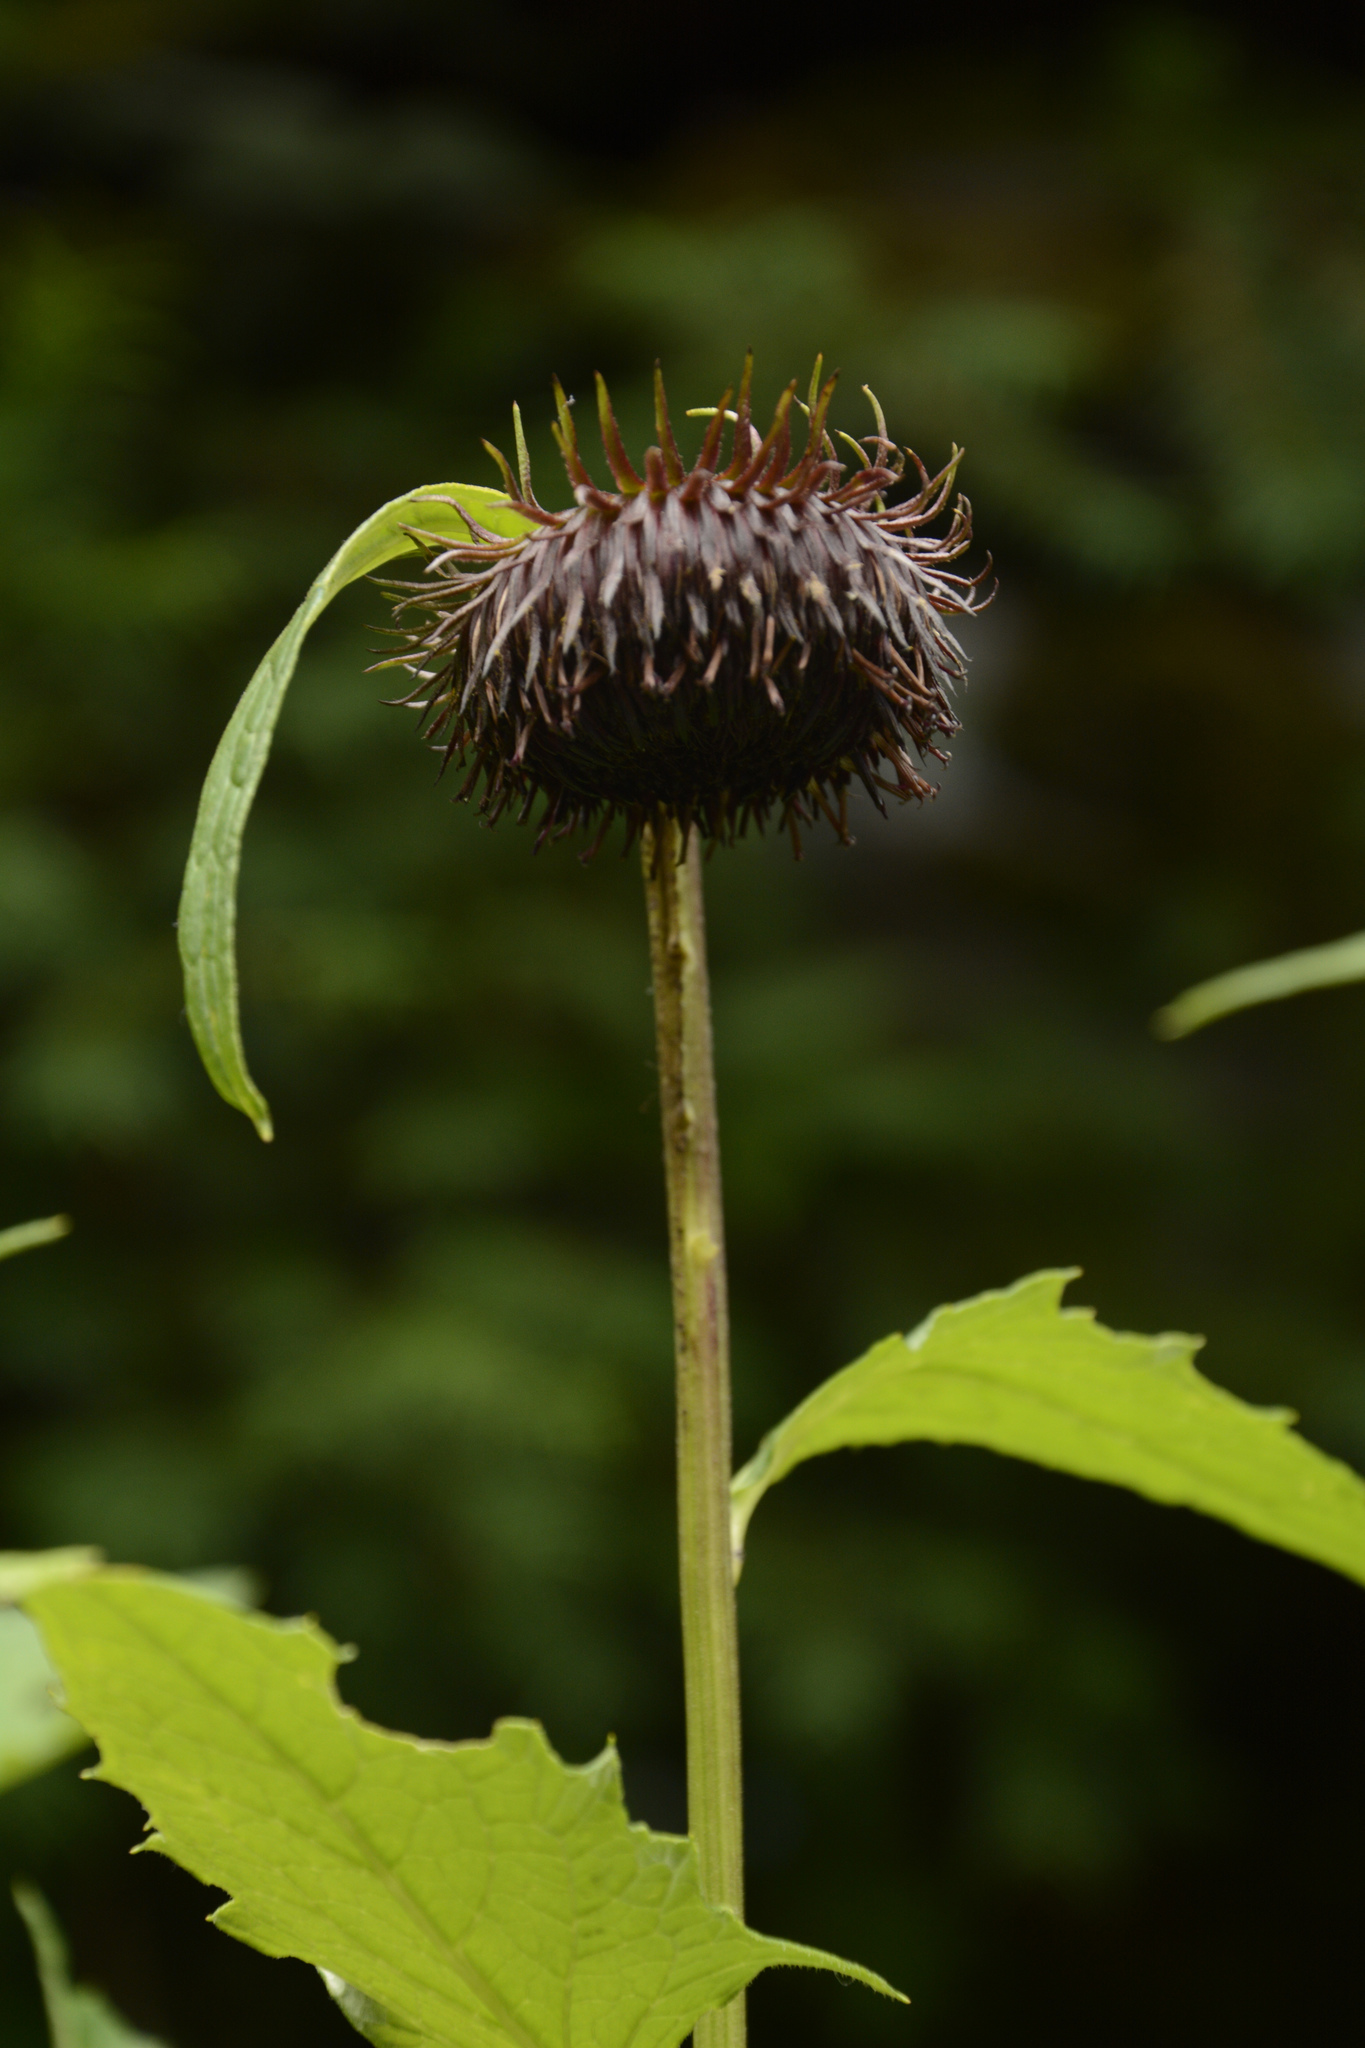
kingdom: Plantae
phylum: Tracheophyta
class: Magnoliopsida
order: Asterales
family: Asteraceae
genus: Jurinea
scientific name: Jurinea auriculata
